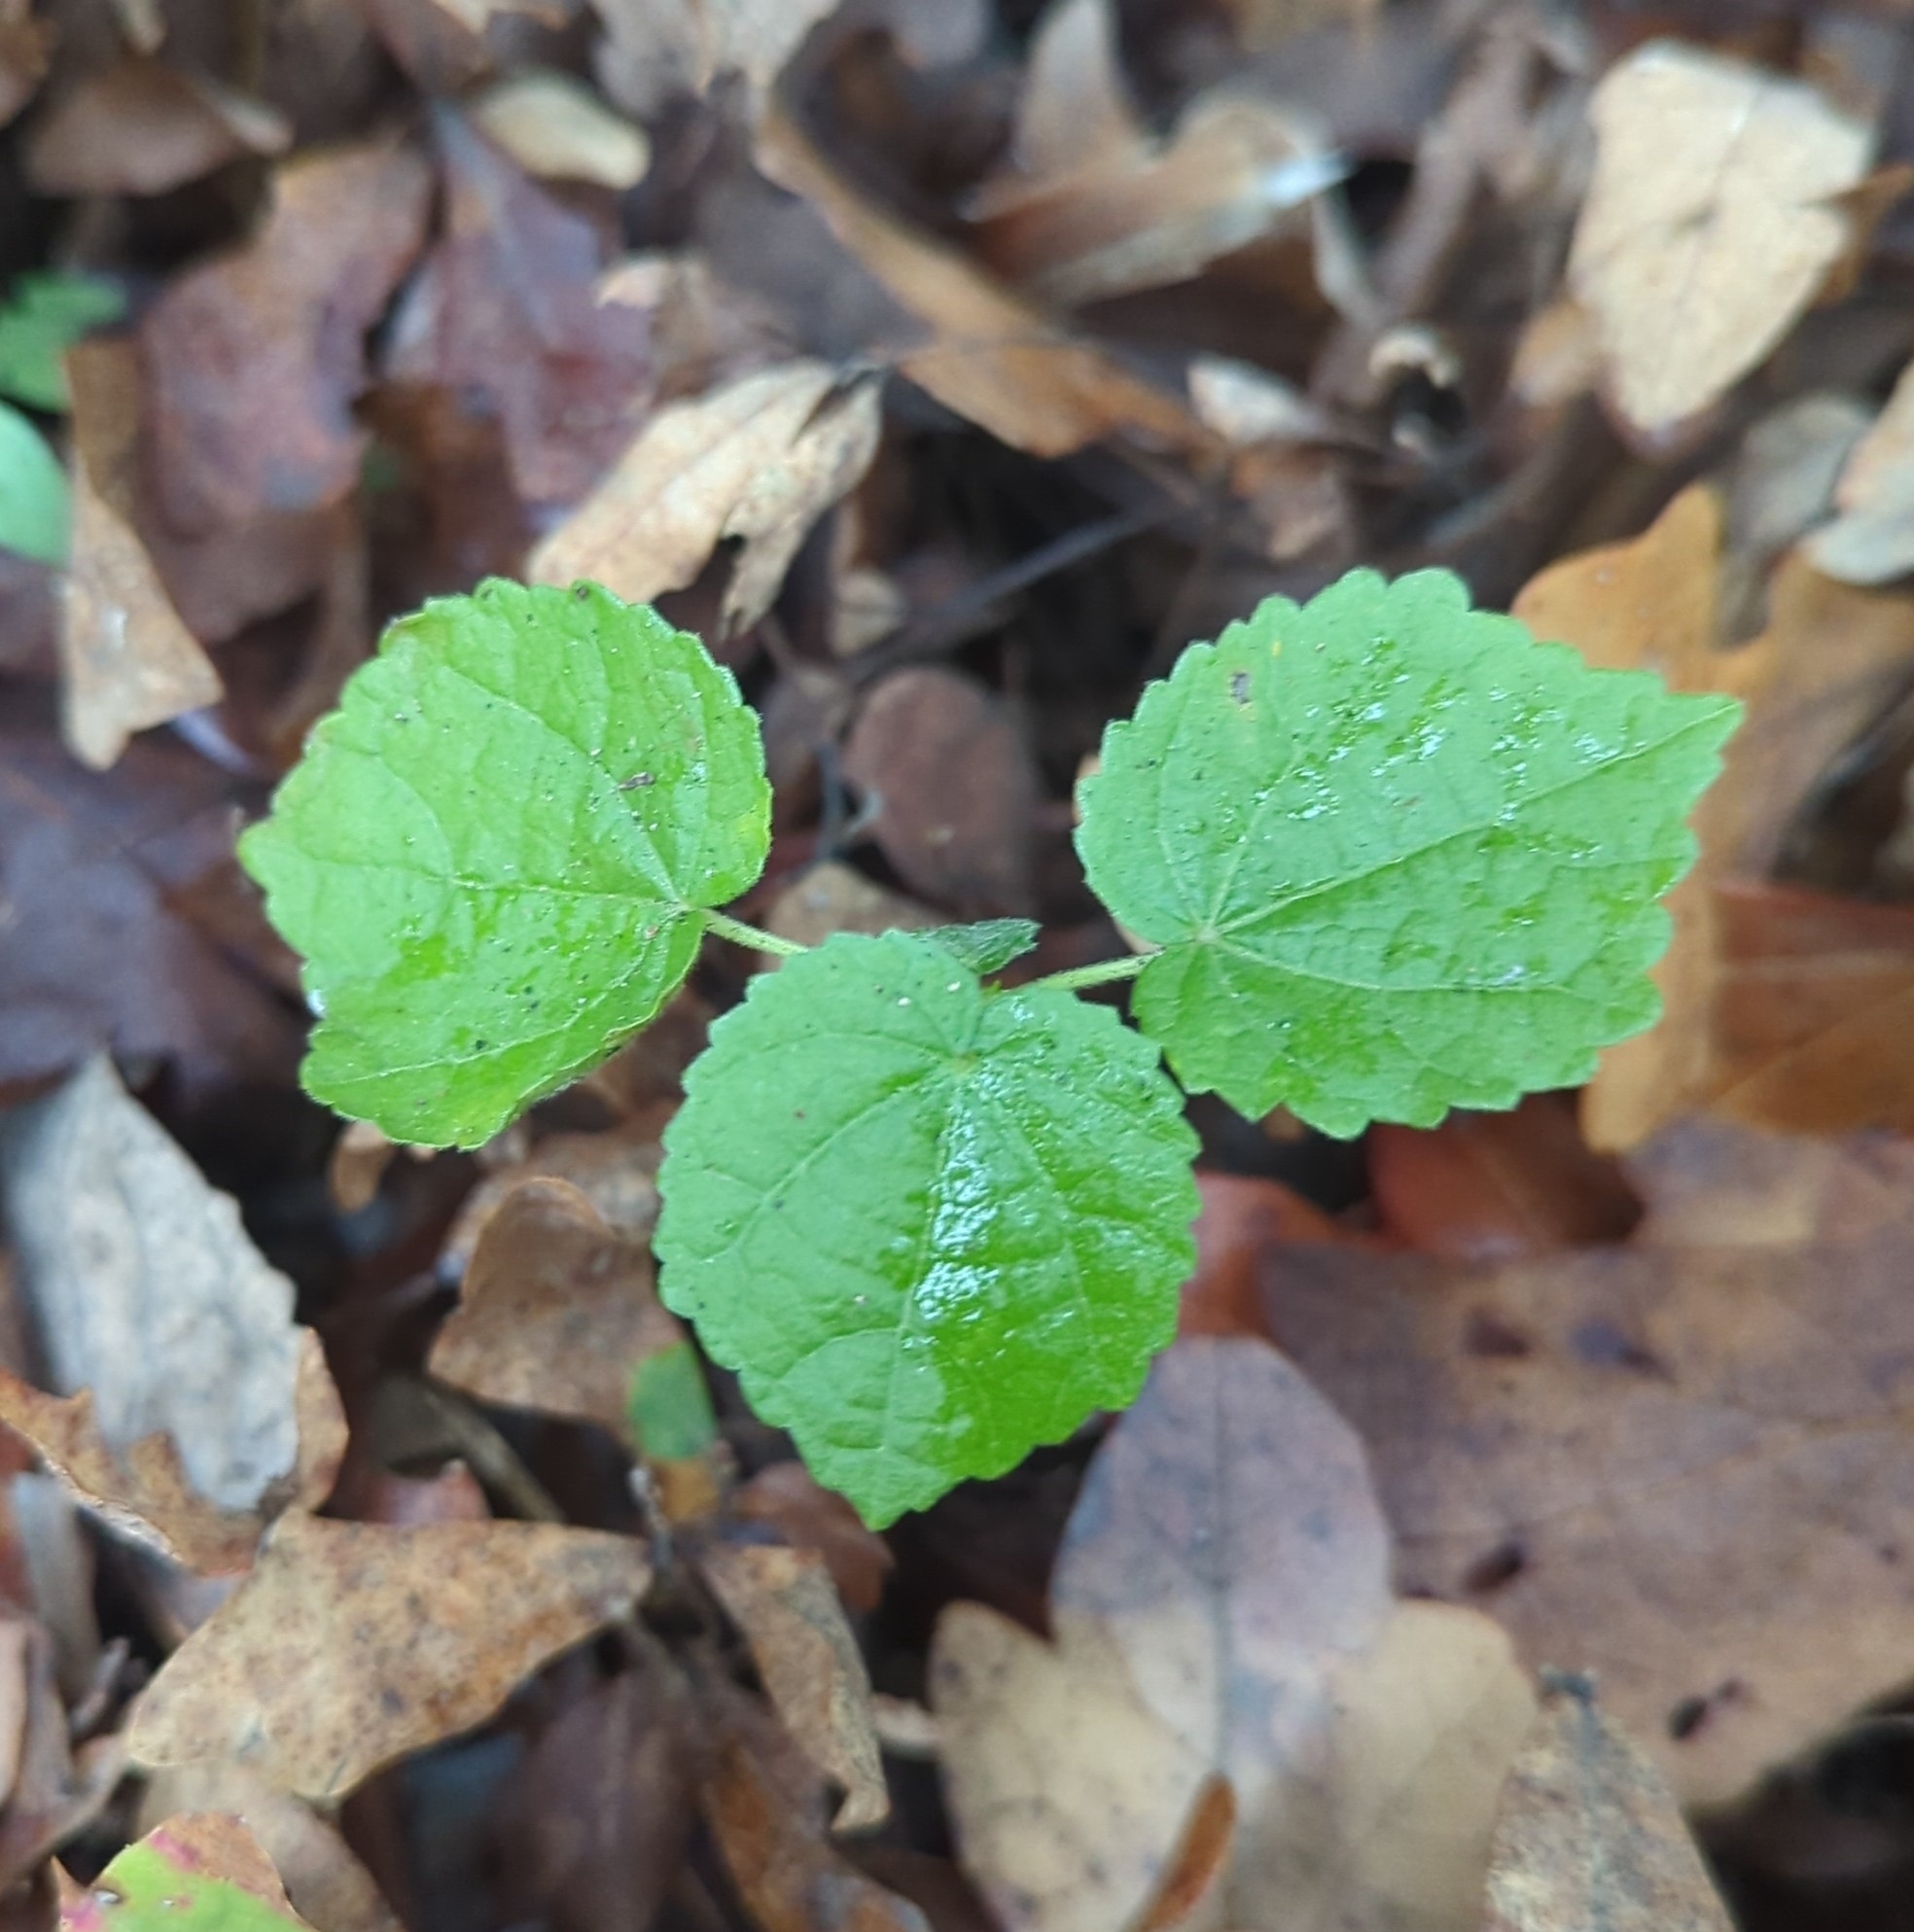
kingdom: Plantae
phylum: Tracheophyta
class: Magnoliopsida
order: Malvales
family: Malvaceae
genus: Malvaviscus
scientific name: Malvaviscus arboreus
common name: Wax mallow
